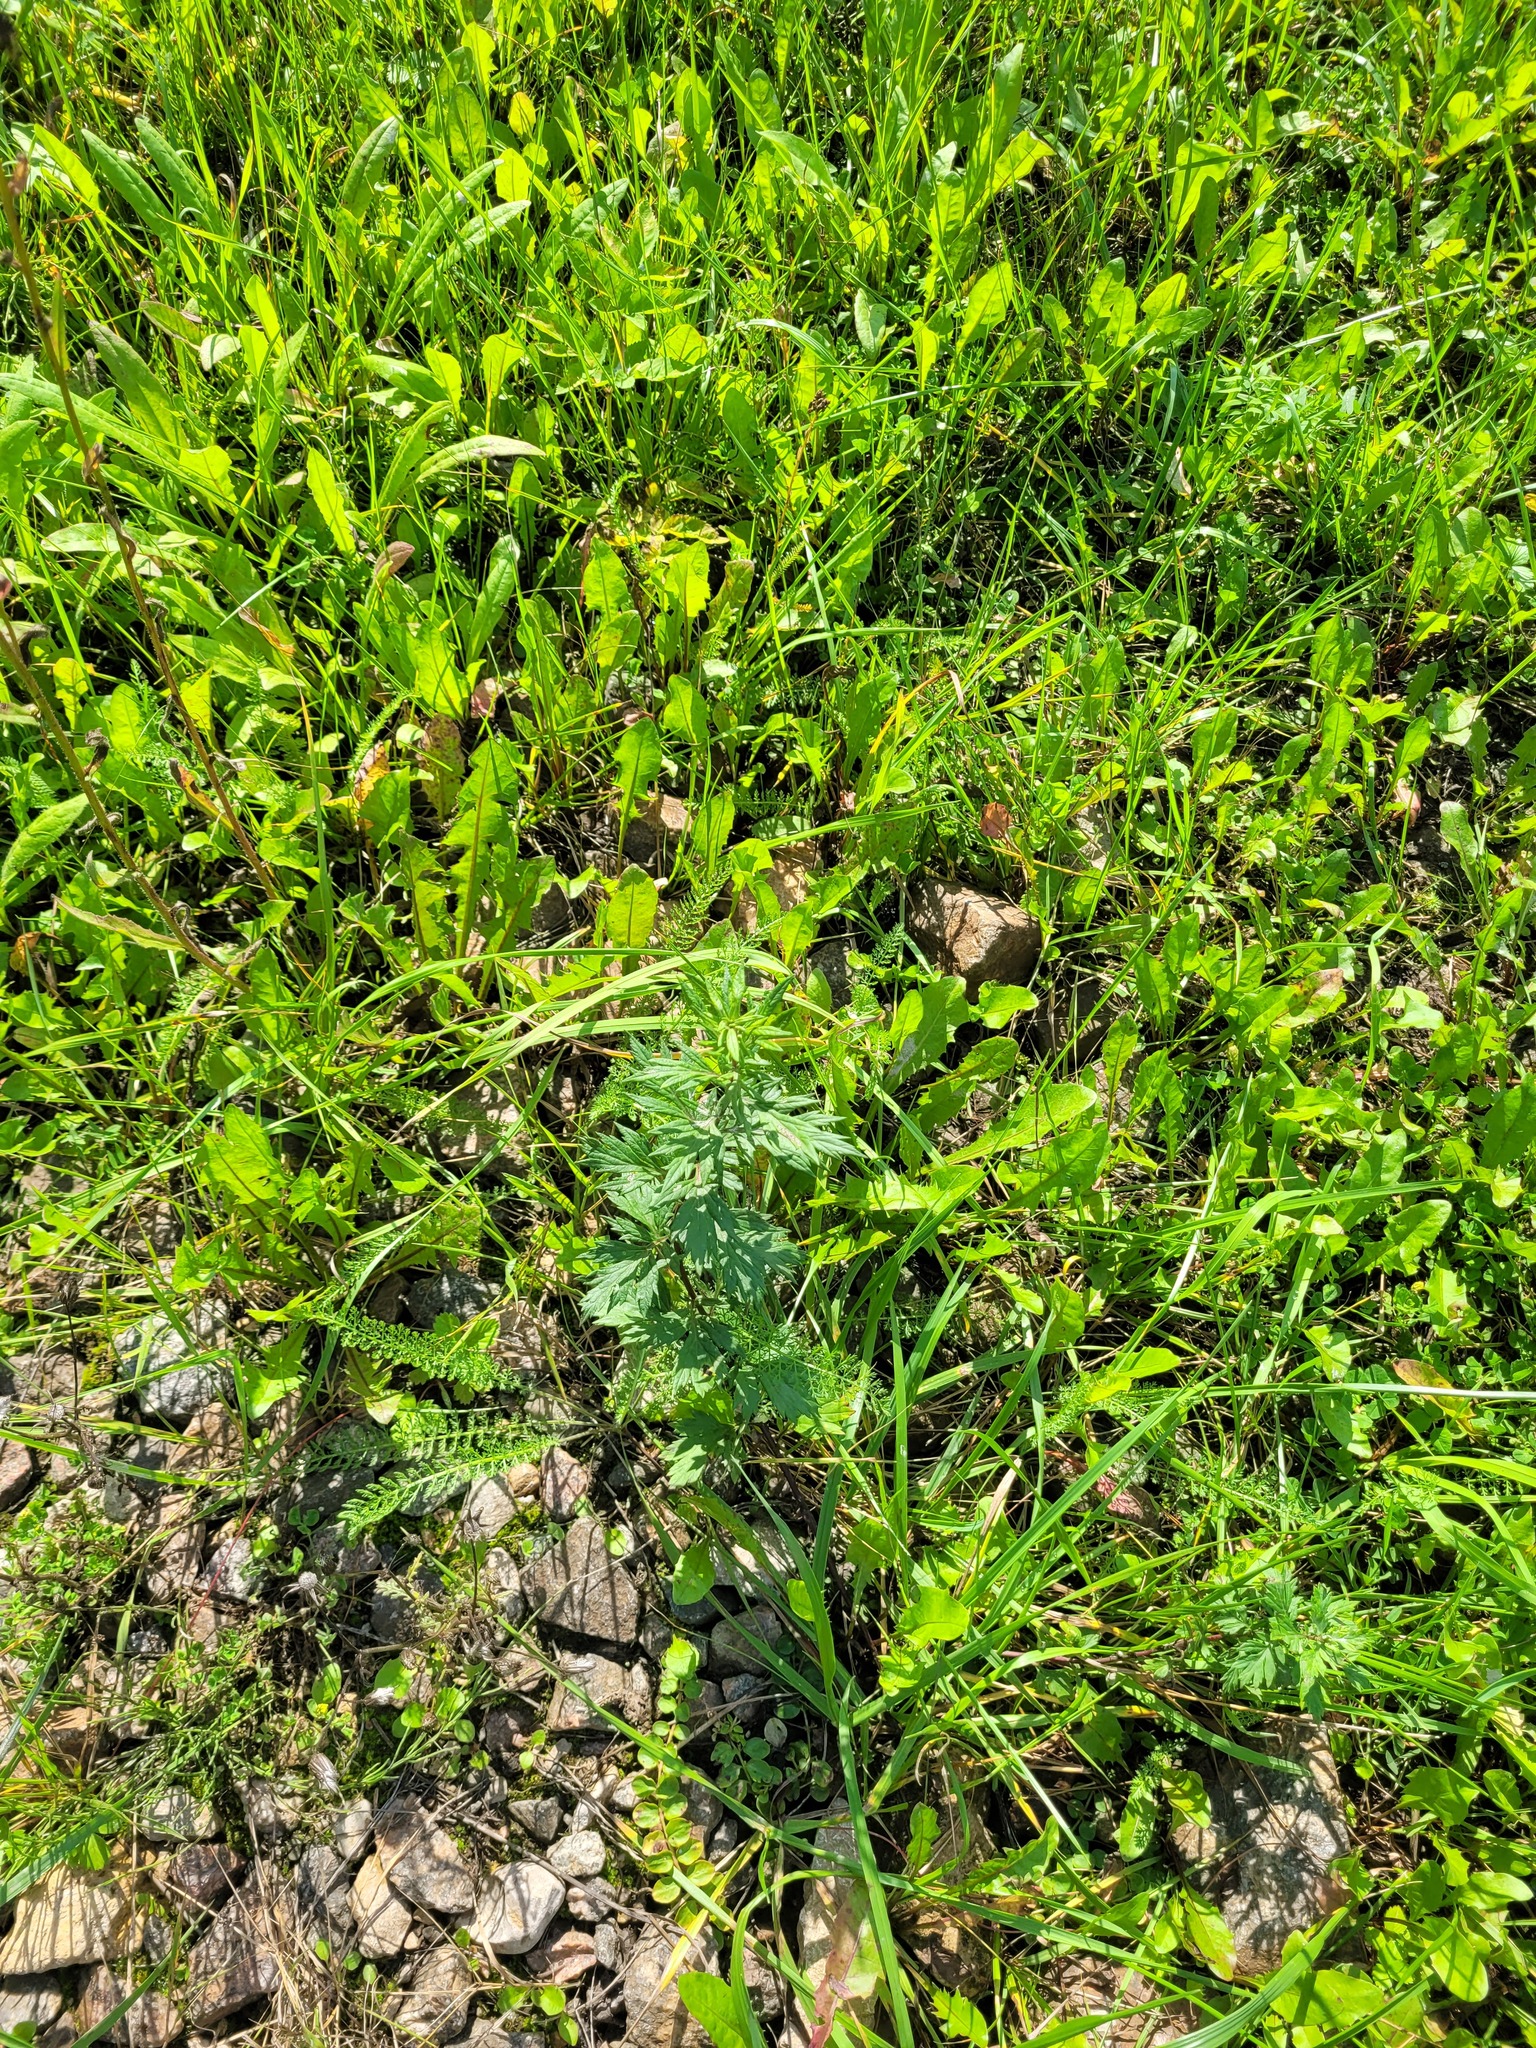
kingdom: Plantae
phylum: Tracheophyta
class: Magnoliopsida
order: Asterales
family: Asteraceae
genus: Artemisia
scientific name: Artemisia vulgaris
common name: Mugwort
